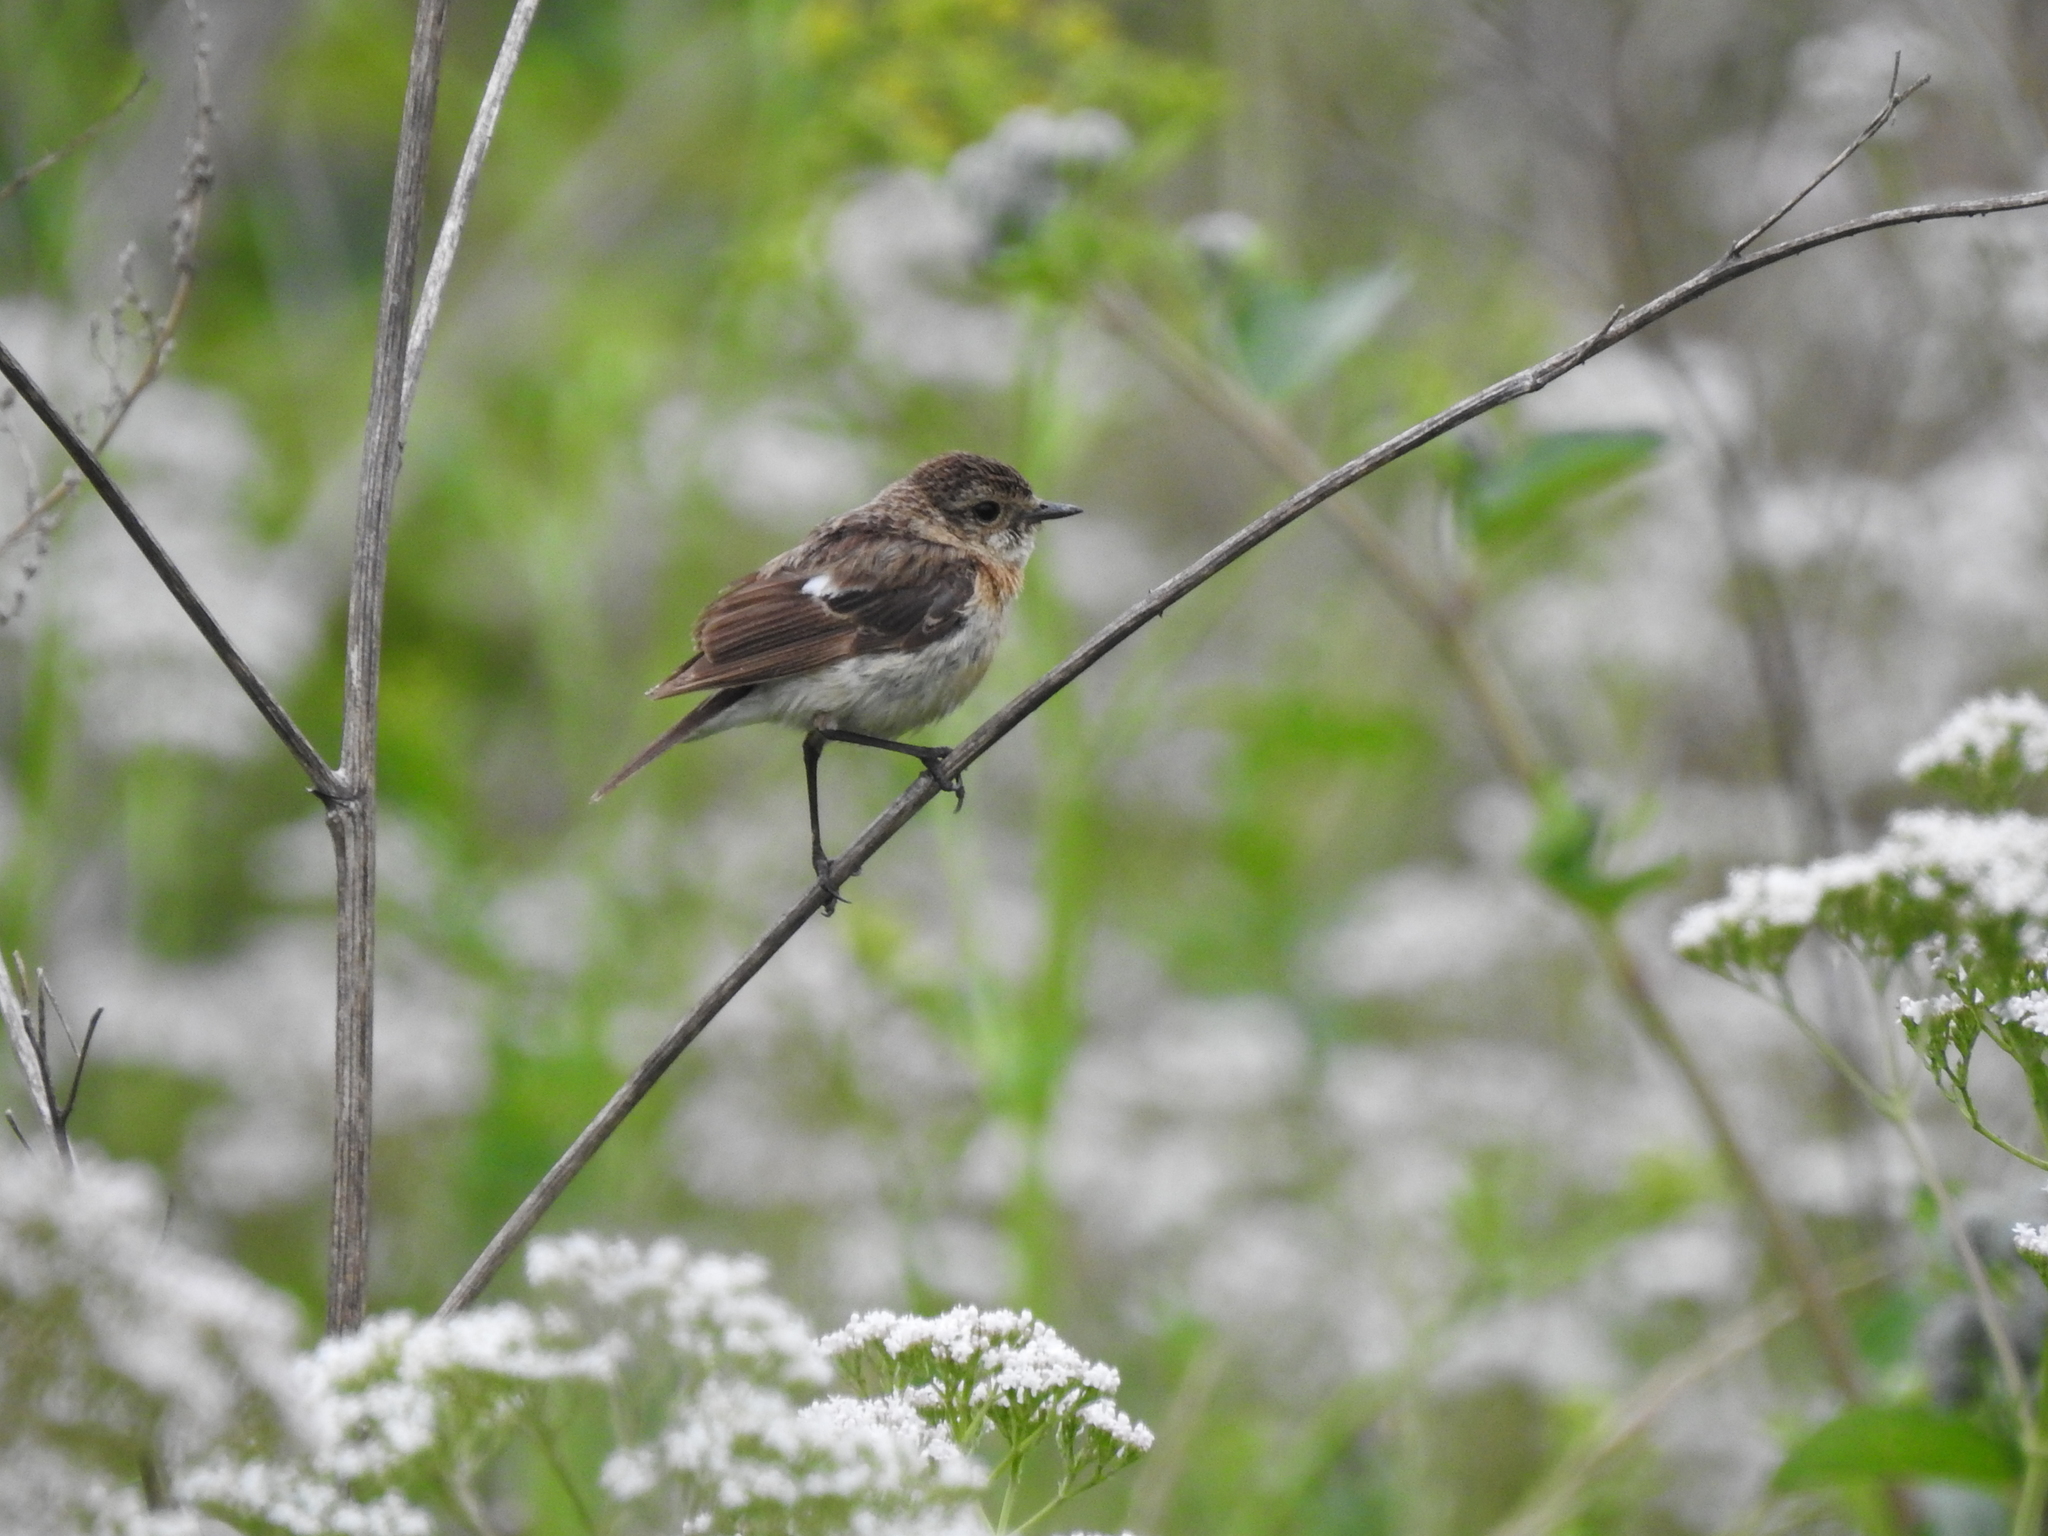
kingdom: Animalia
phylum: Chordata
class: Aves
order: Passeriformes
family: Muscicapidae
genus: Saxicola
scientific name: Saxicola maurus
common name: Siberian stonechat
